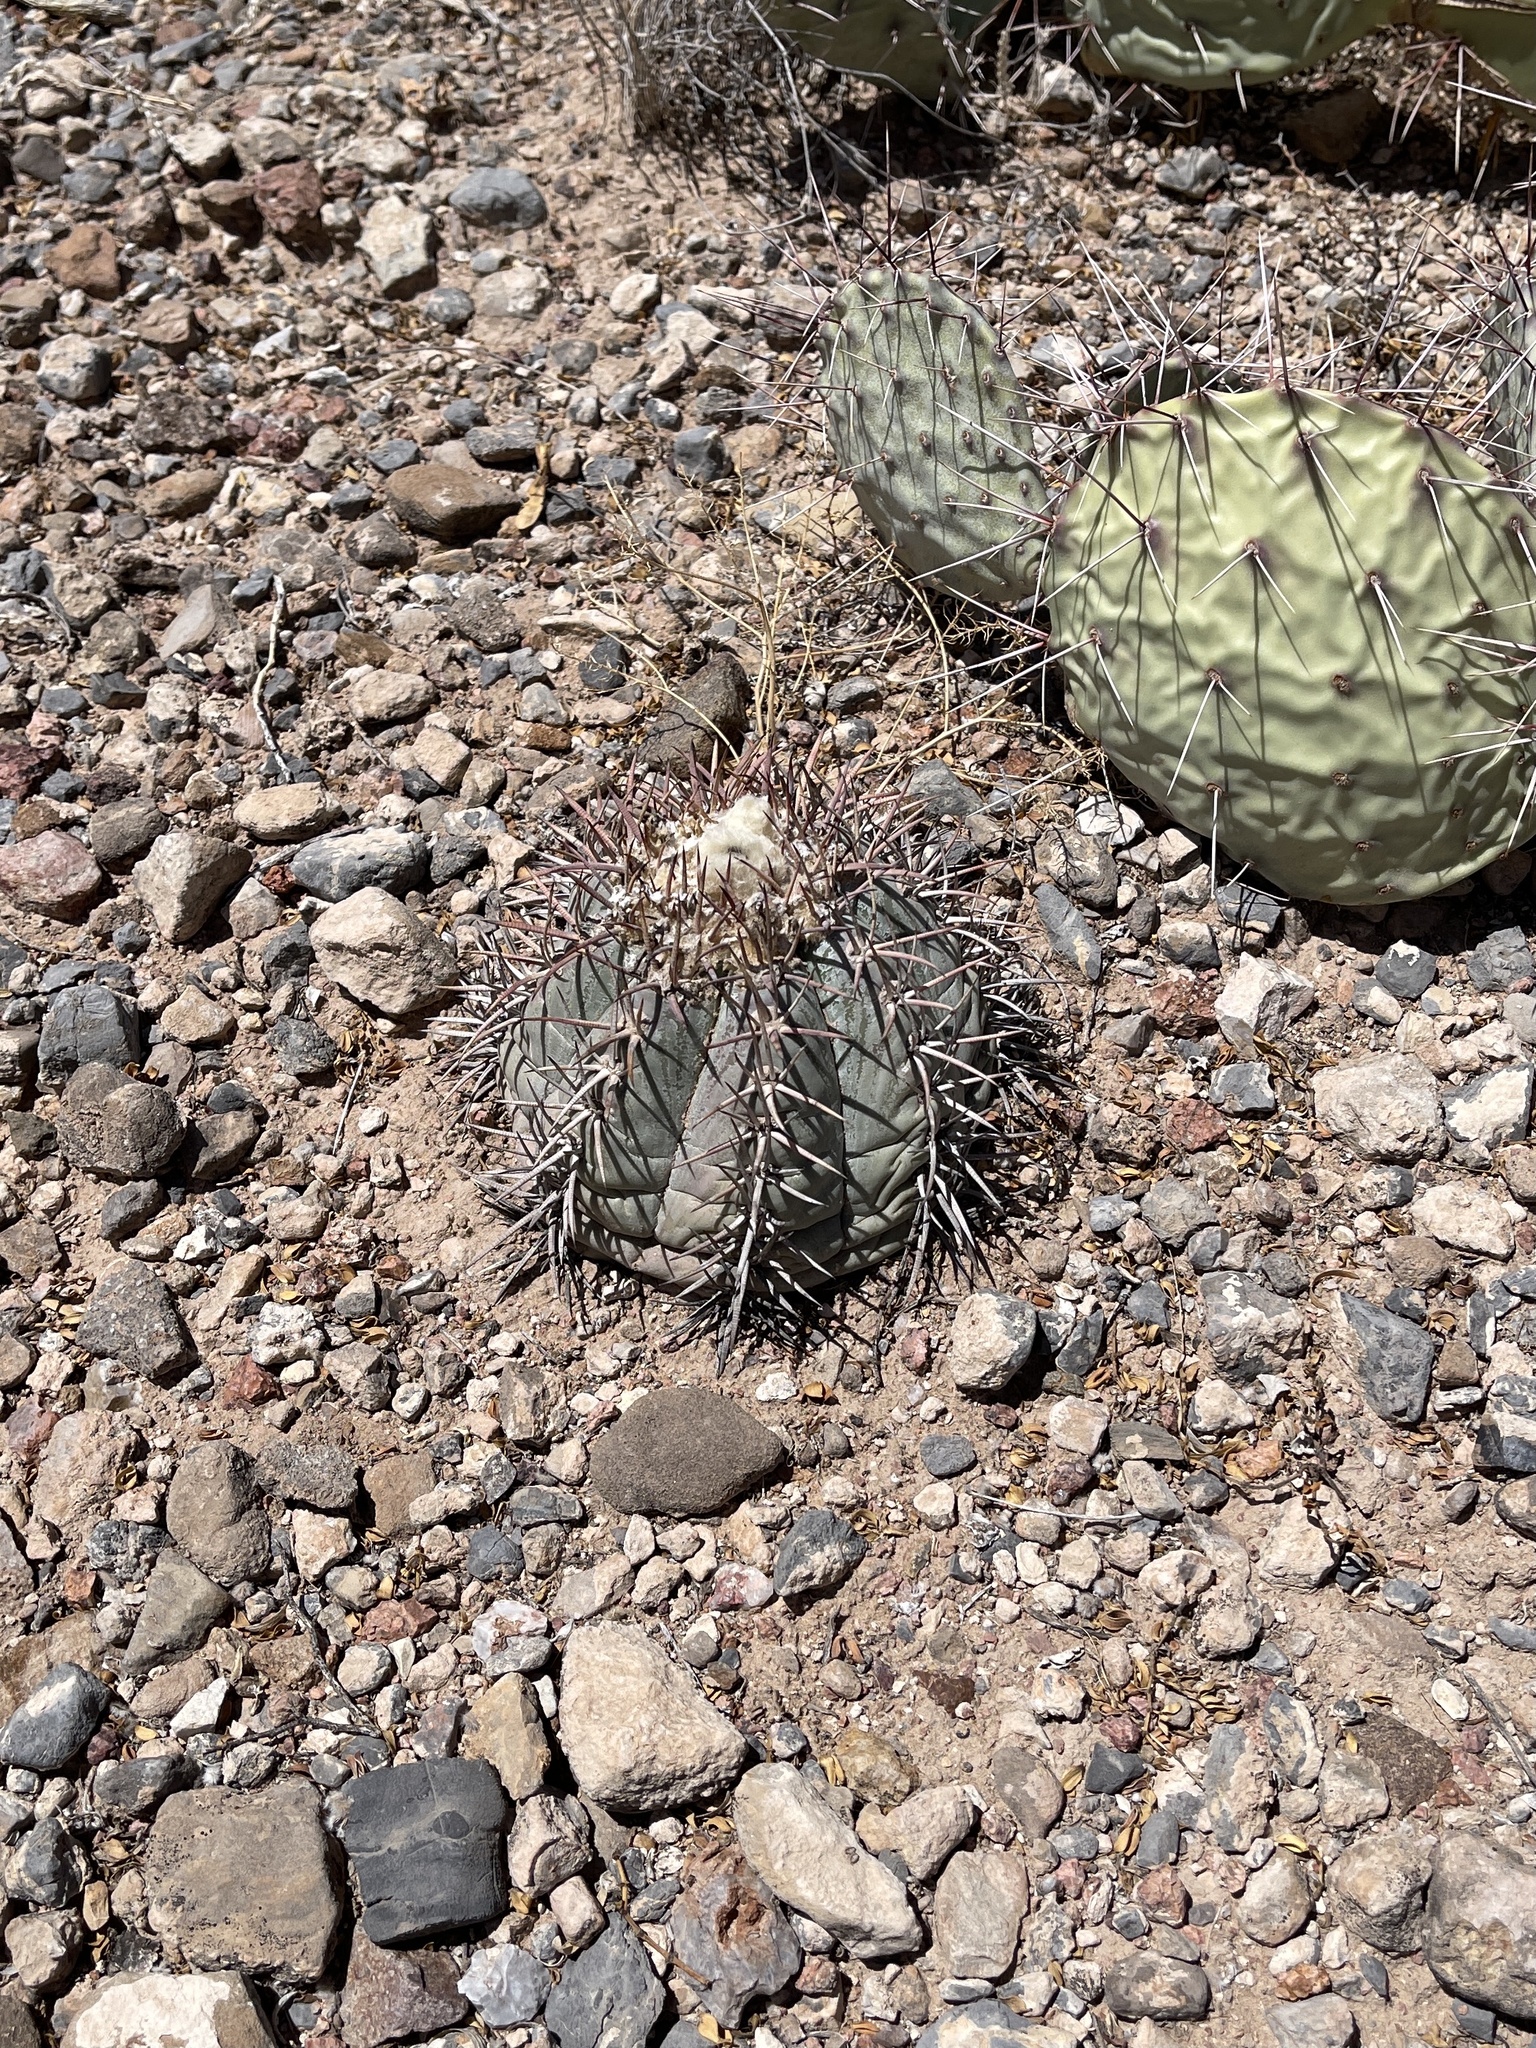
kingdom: Plantae
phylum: Tracheophyta
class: Magnoliopsida
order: Caryophyllales
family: Cactaceae
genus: Echinocactus
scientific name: Echinocactus horizonthalonius
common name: Devilshead
